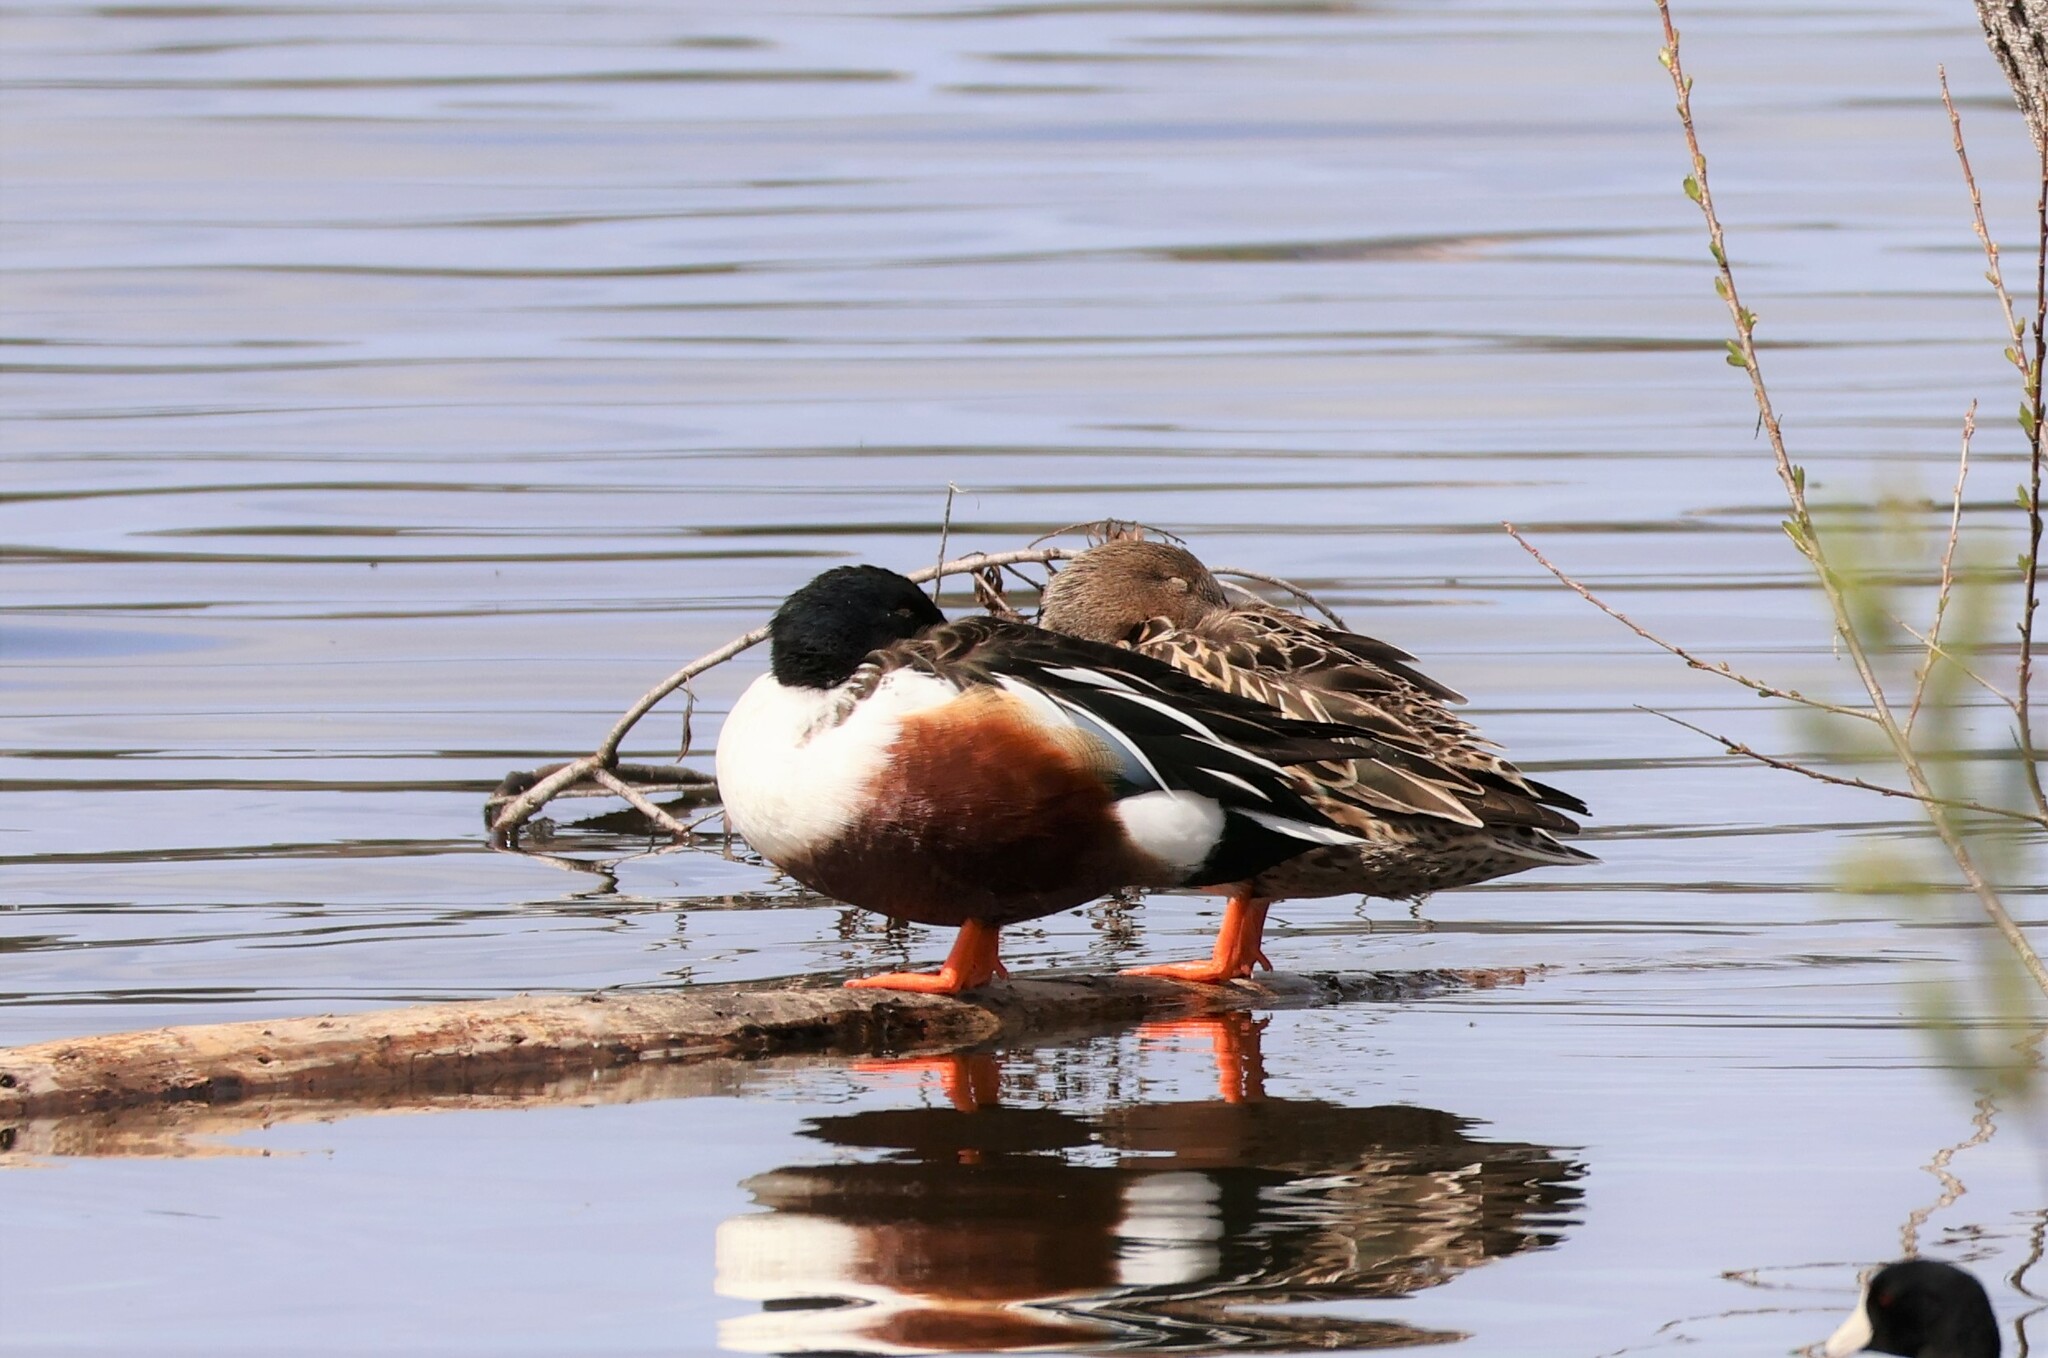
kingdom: Animalia
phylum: Chordata
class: Aves
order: Anseriformes
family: Anatidae
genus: Spatula
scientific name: Spatula clypeata
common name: Northern shoveler
